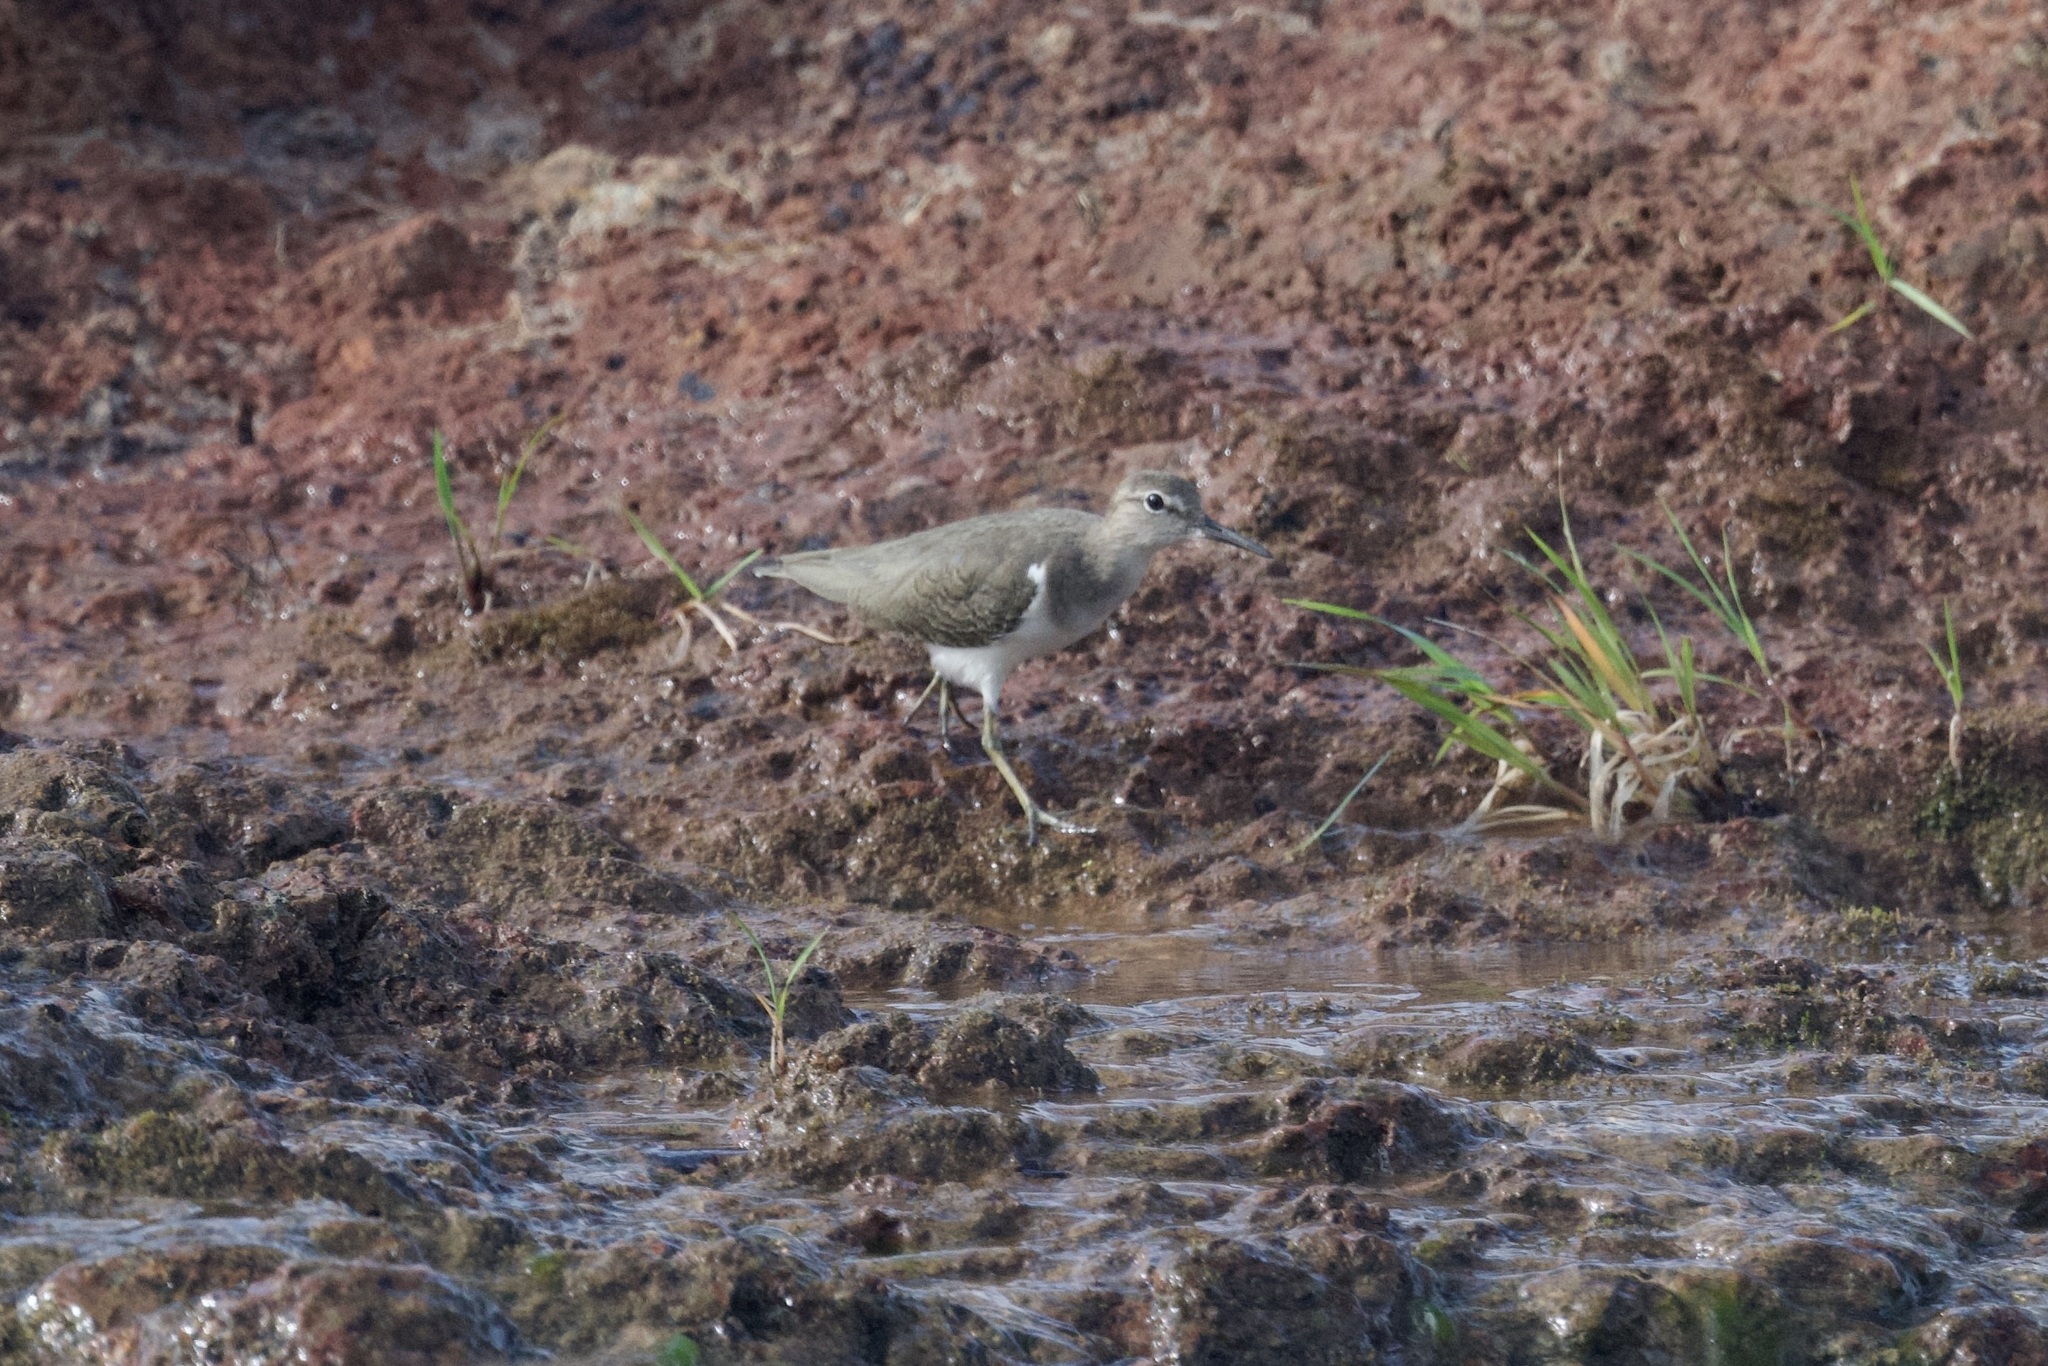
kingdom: Animalia
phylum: Chordata
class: Aves
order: Charadriiformes
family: Scolopacidae
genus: Actitis
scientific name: Actitis macularius
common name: Spotted sandpiper
